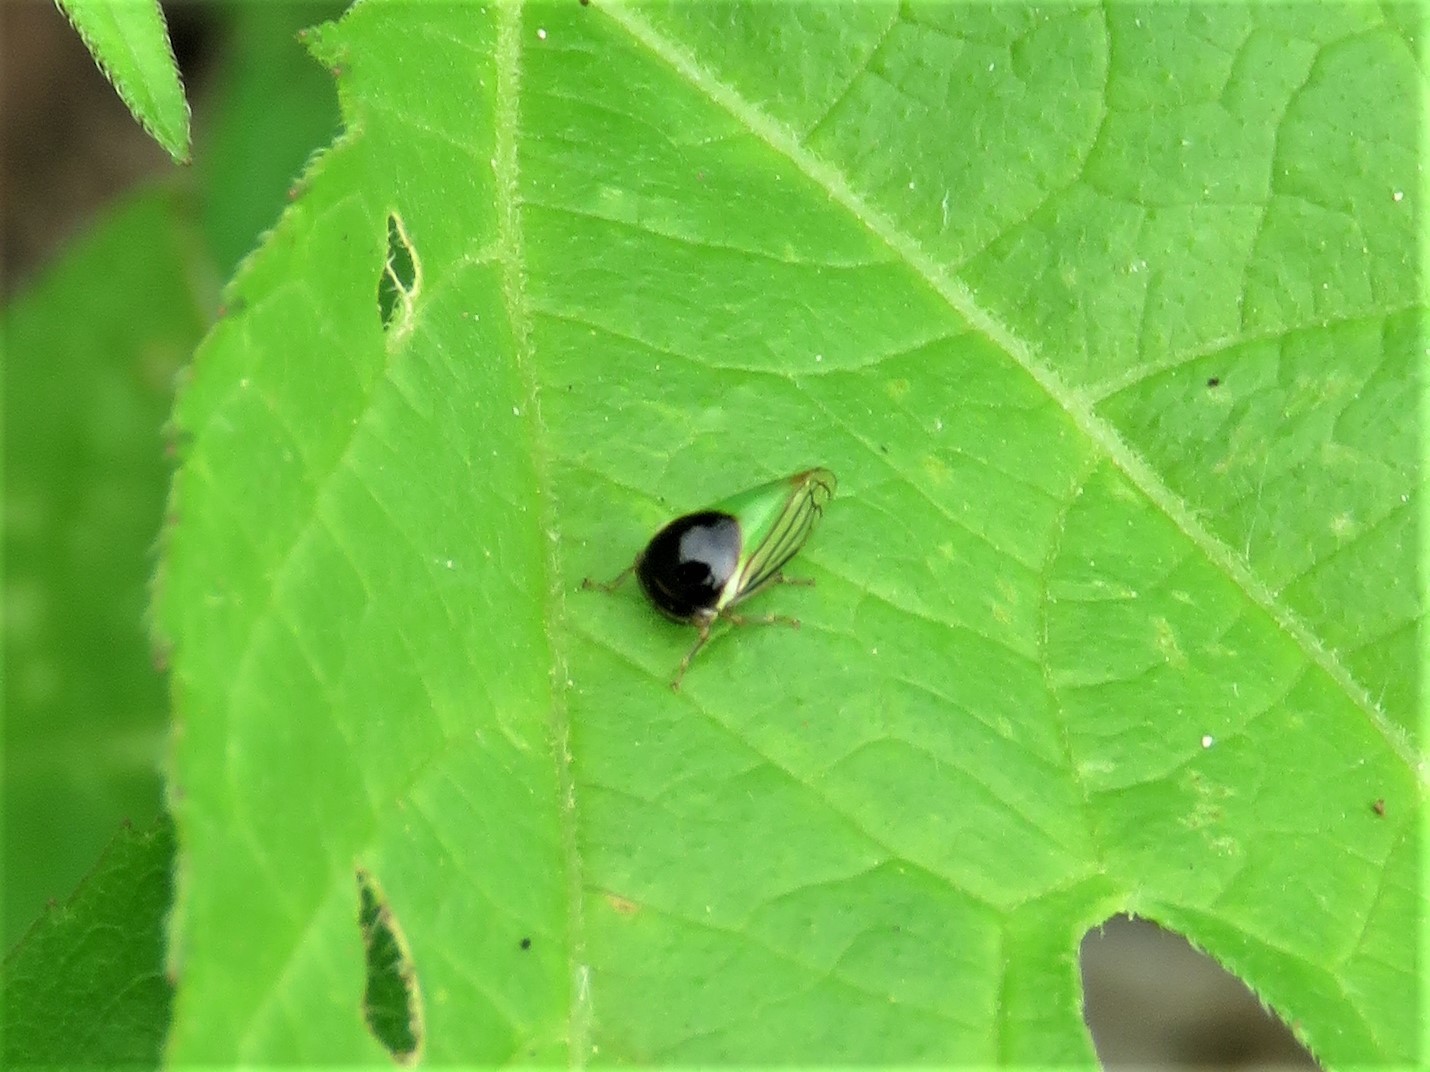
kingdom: Animalia
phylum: Arthropoda
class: Insecta
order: Hemiptera
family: Membracidae
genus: Acutalis
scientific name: Acutalis tartarea
